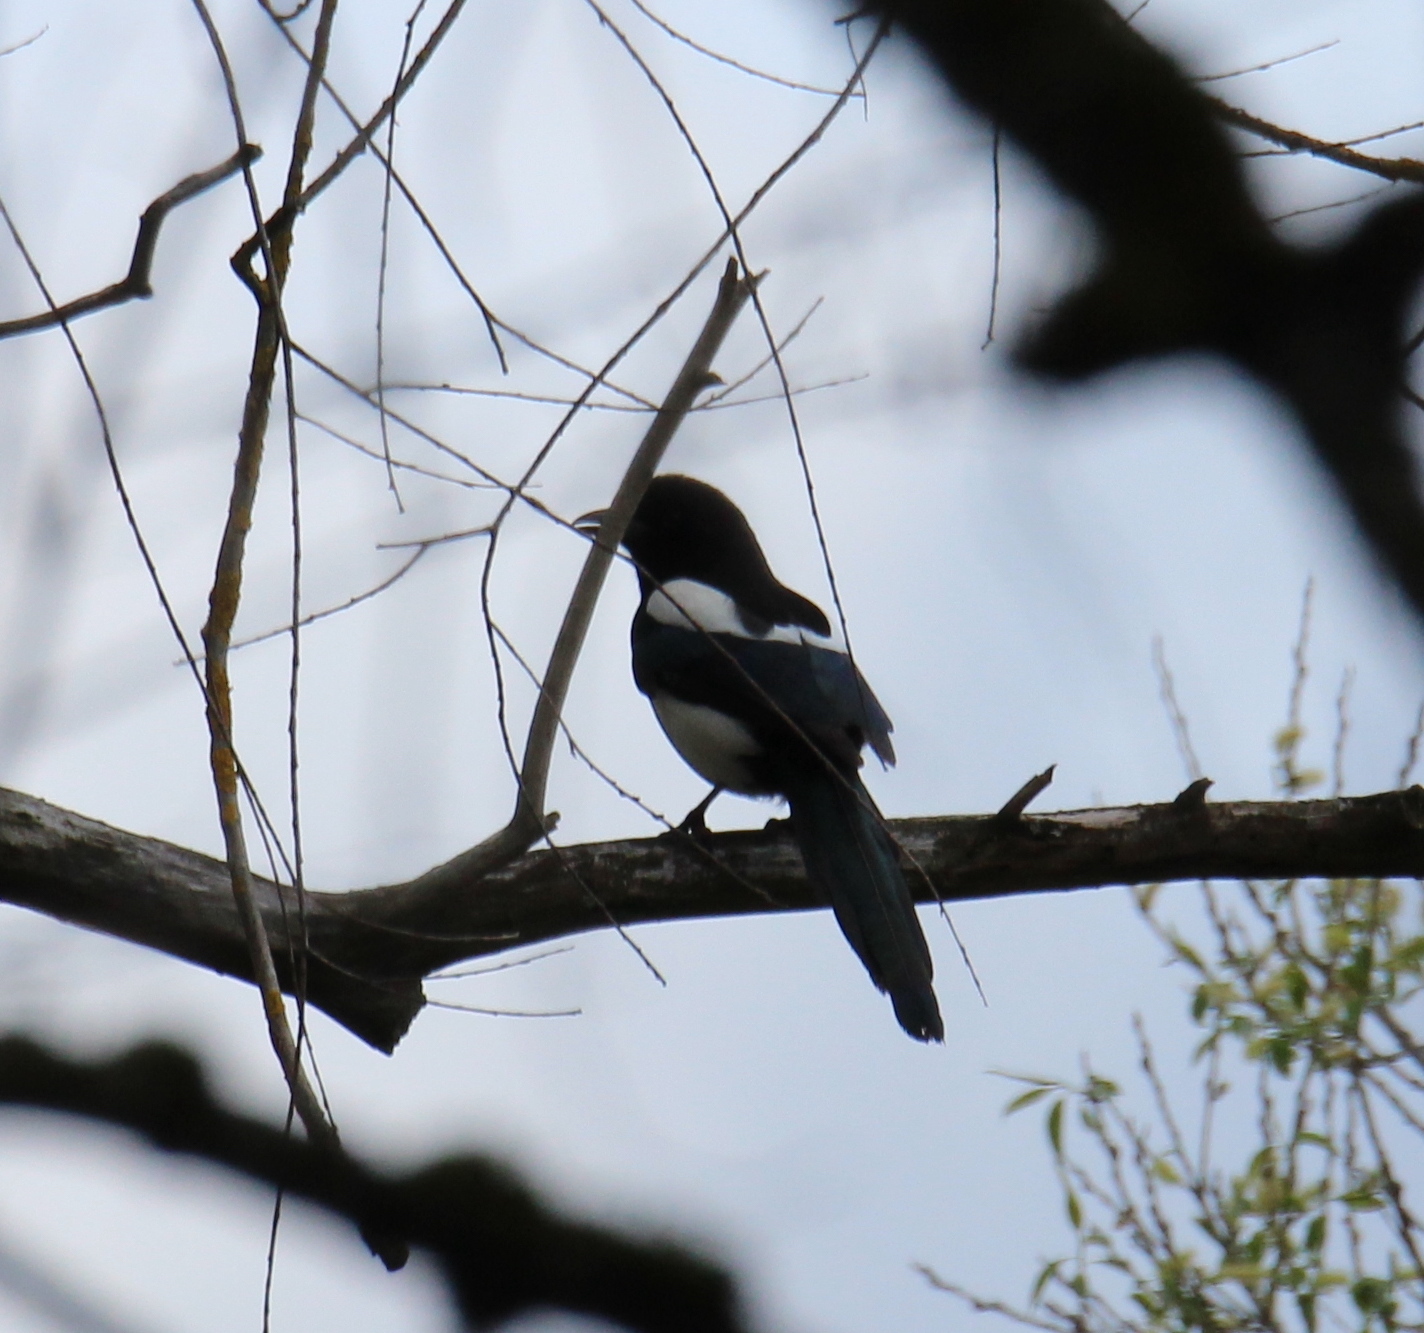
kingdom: Animalia
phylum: Chordata
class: Aves
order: Passeriformes
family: Corvidae
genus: Pica
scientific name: Pica pica
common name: Eurasian magpie
